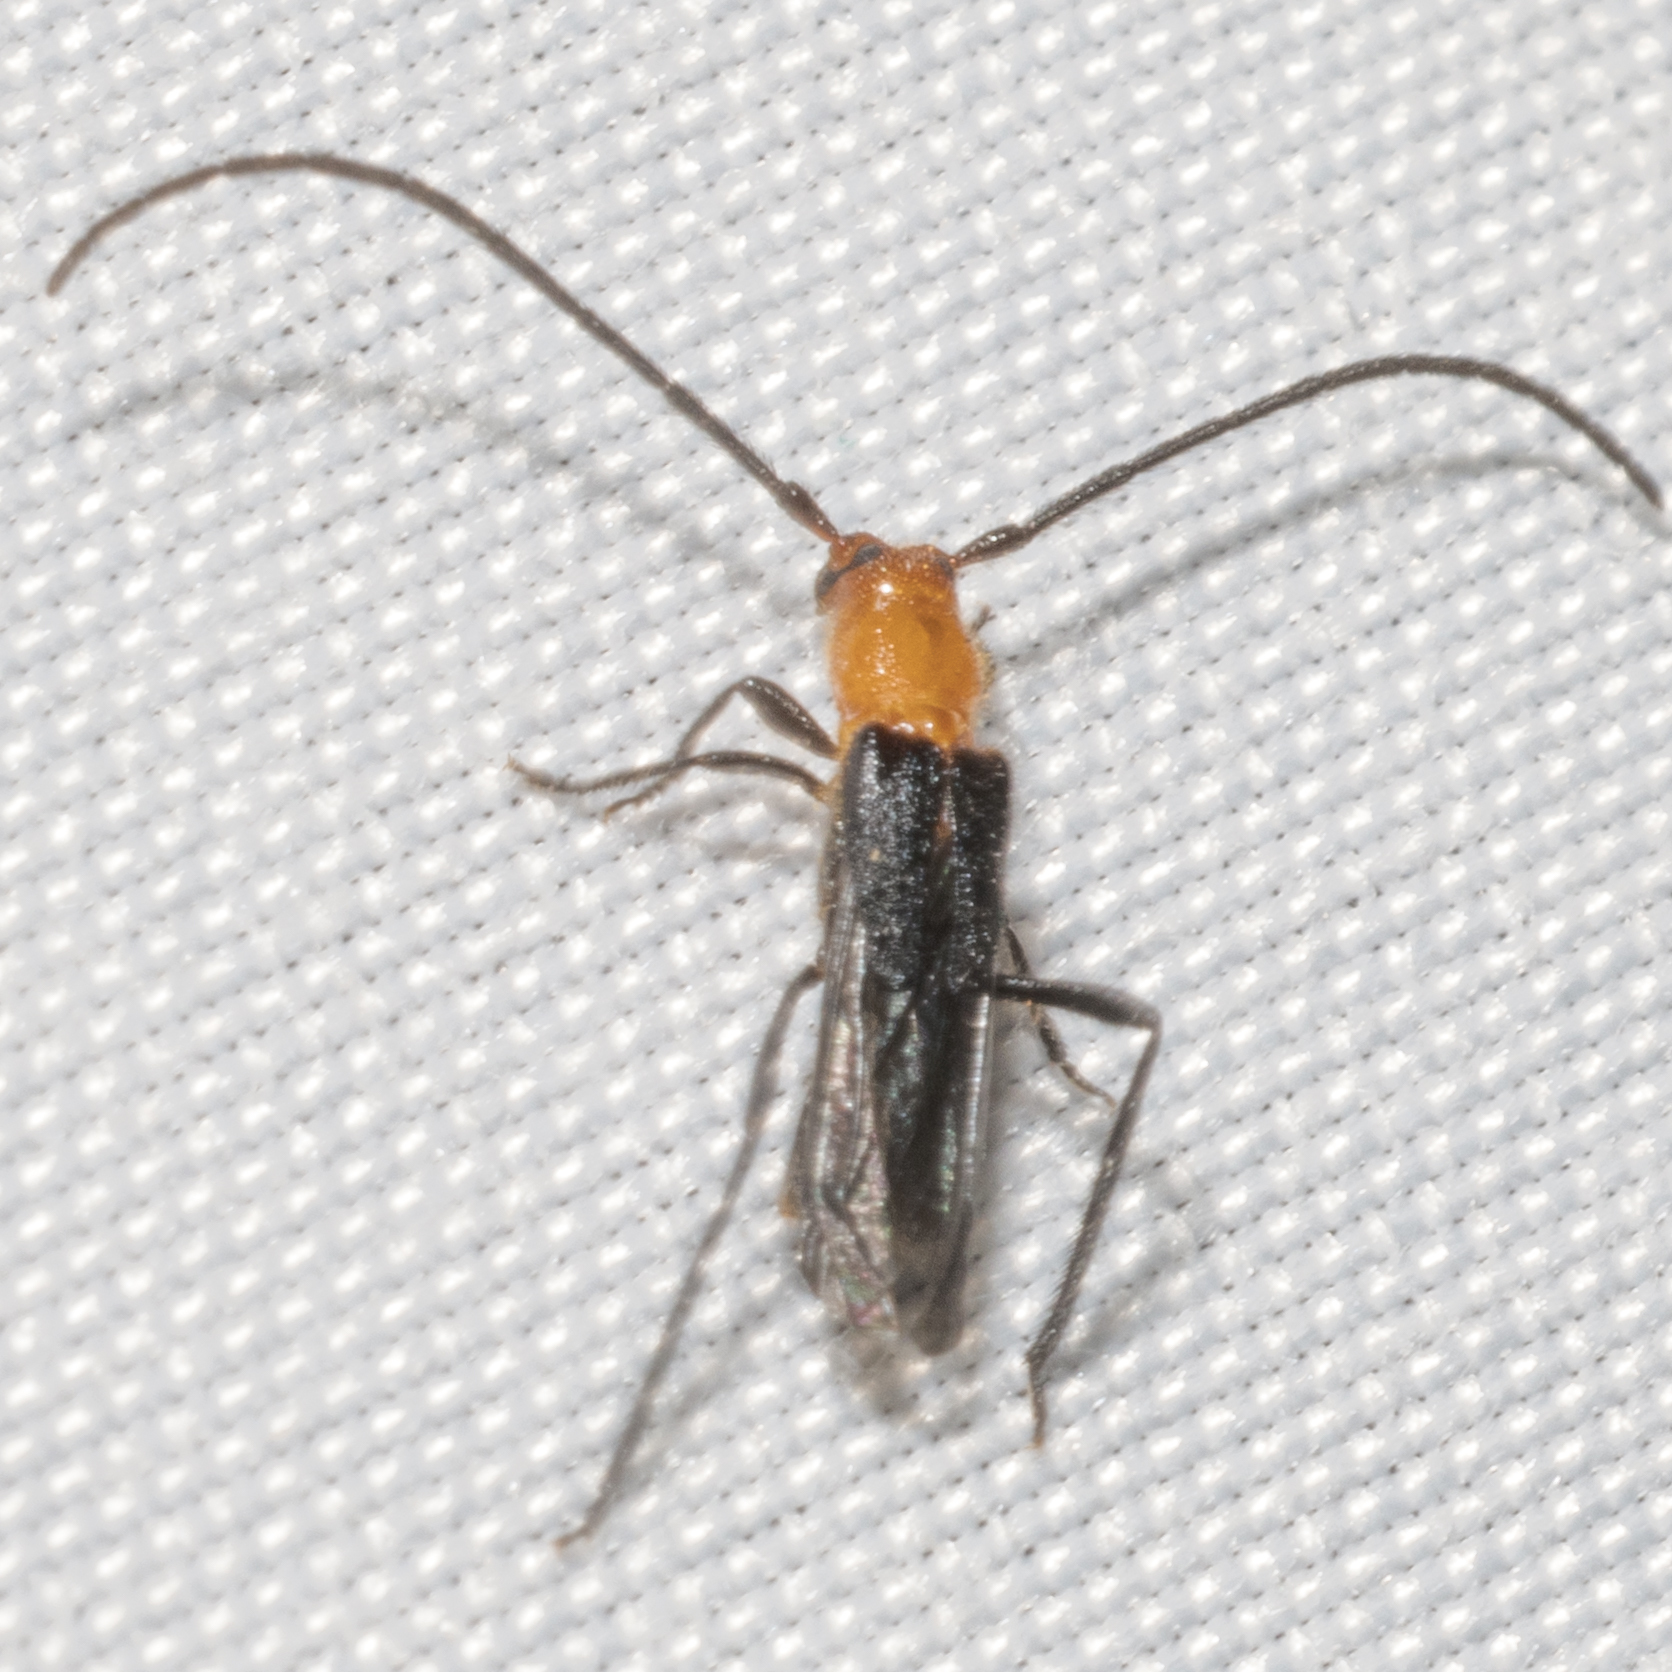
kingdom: Animalia
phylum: Arthropoda
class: Insecta
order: Coleoptera
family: Cerambycidae
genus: Coleomethia
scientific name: Coleomethia xanthocollis
